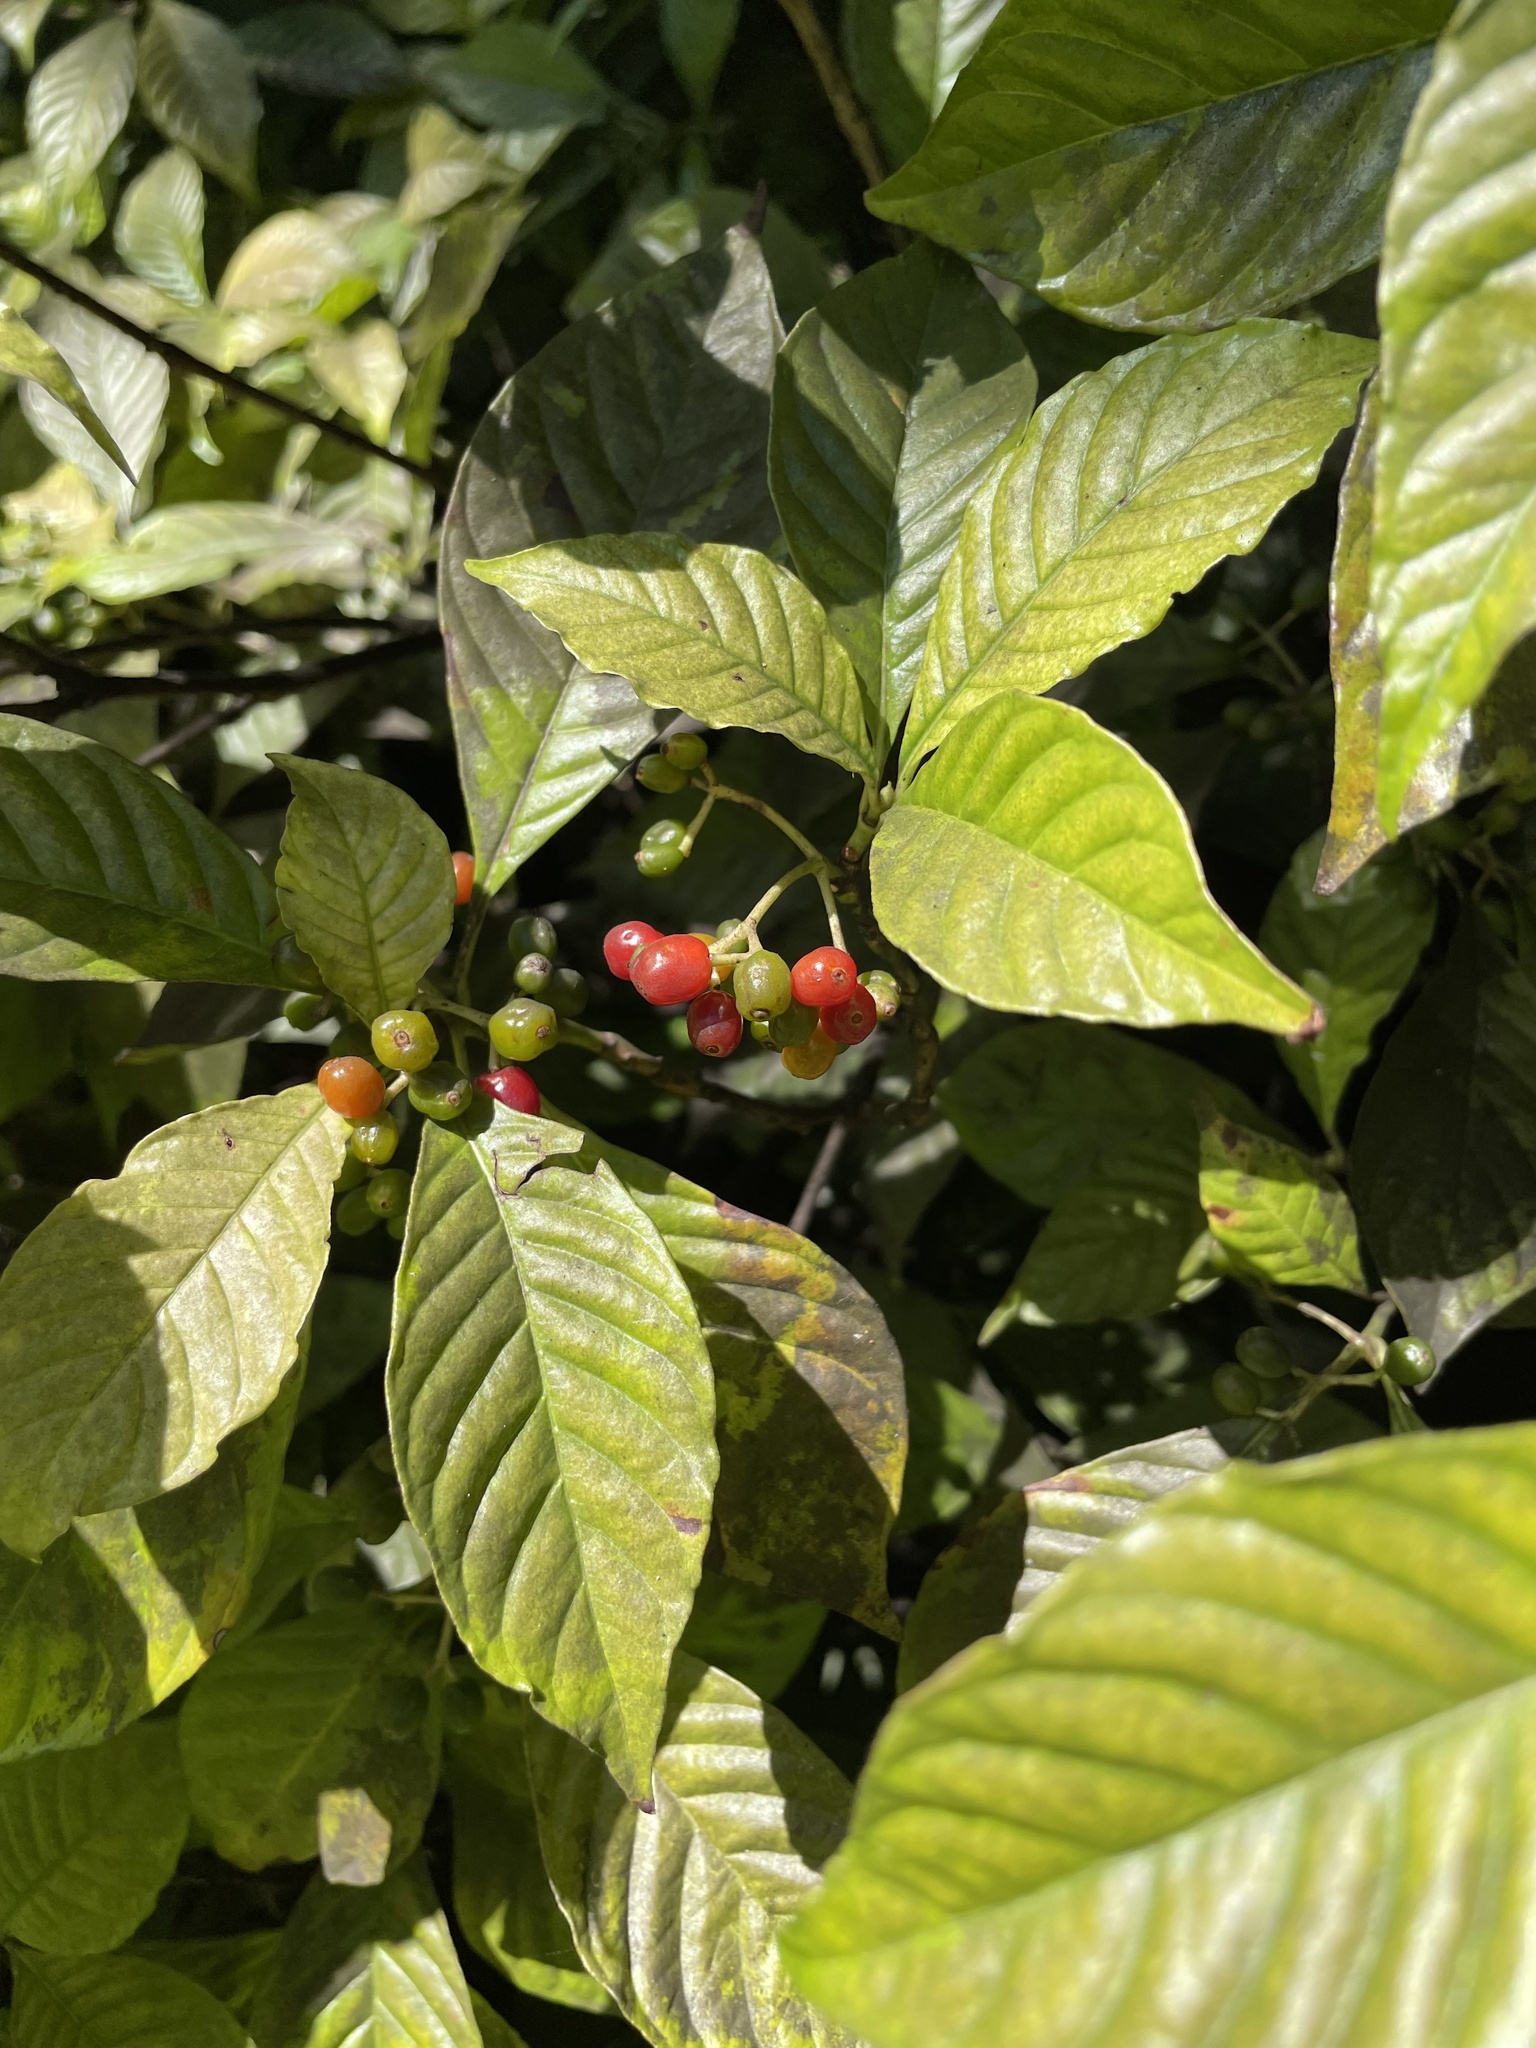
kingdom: Plantae
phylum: Tracheophyta
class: Magnoliopsida
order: Gentianales
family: Rubiaceae
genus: Psychotria
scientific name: Psychotria nervosa
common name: Bastard cankerberry
